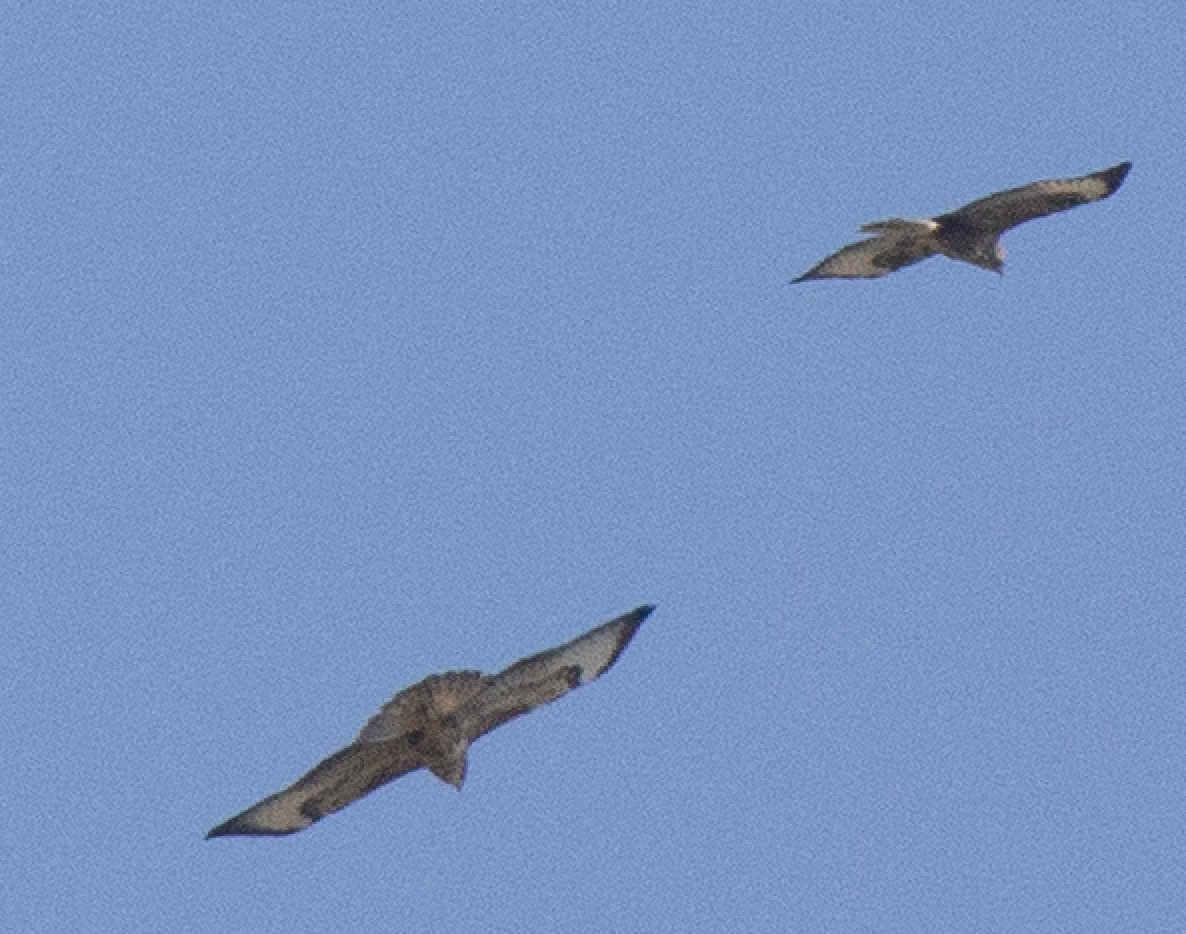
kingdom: Animalia
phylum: Chordata
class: Aves
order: Accipitriformes
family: Accipitridae
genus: Buteo
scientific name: Buteo buteo
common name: Common buzzard
